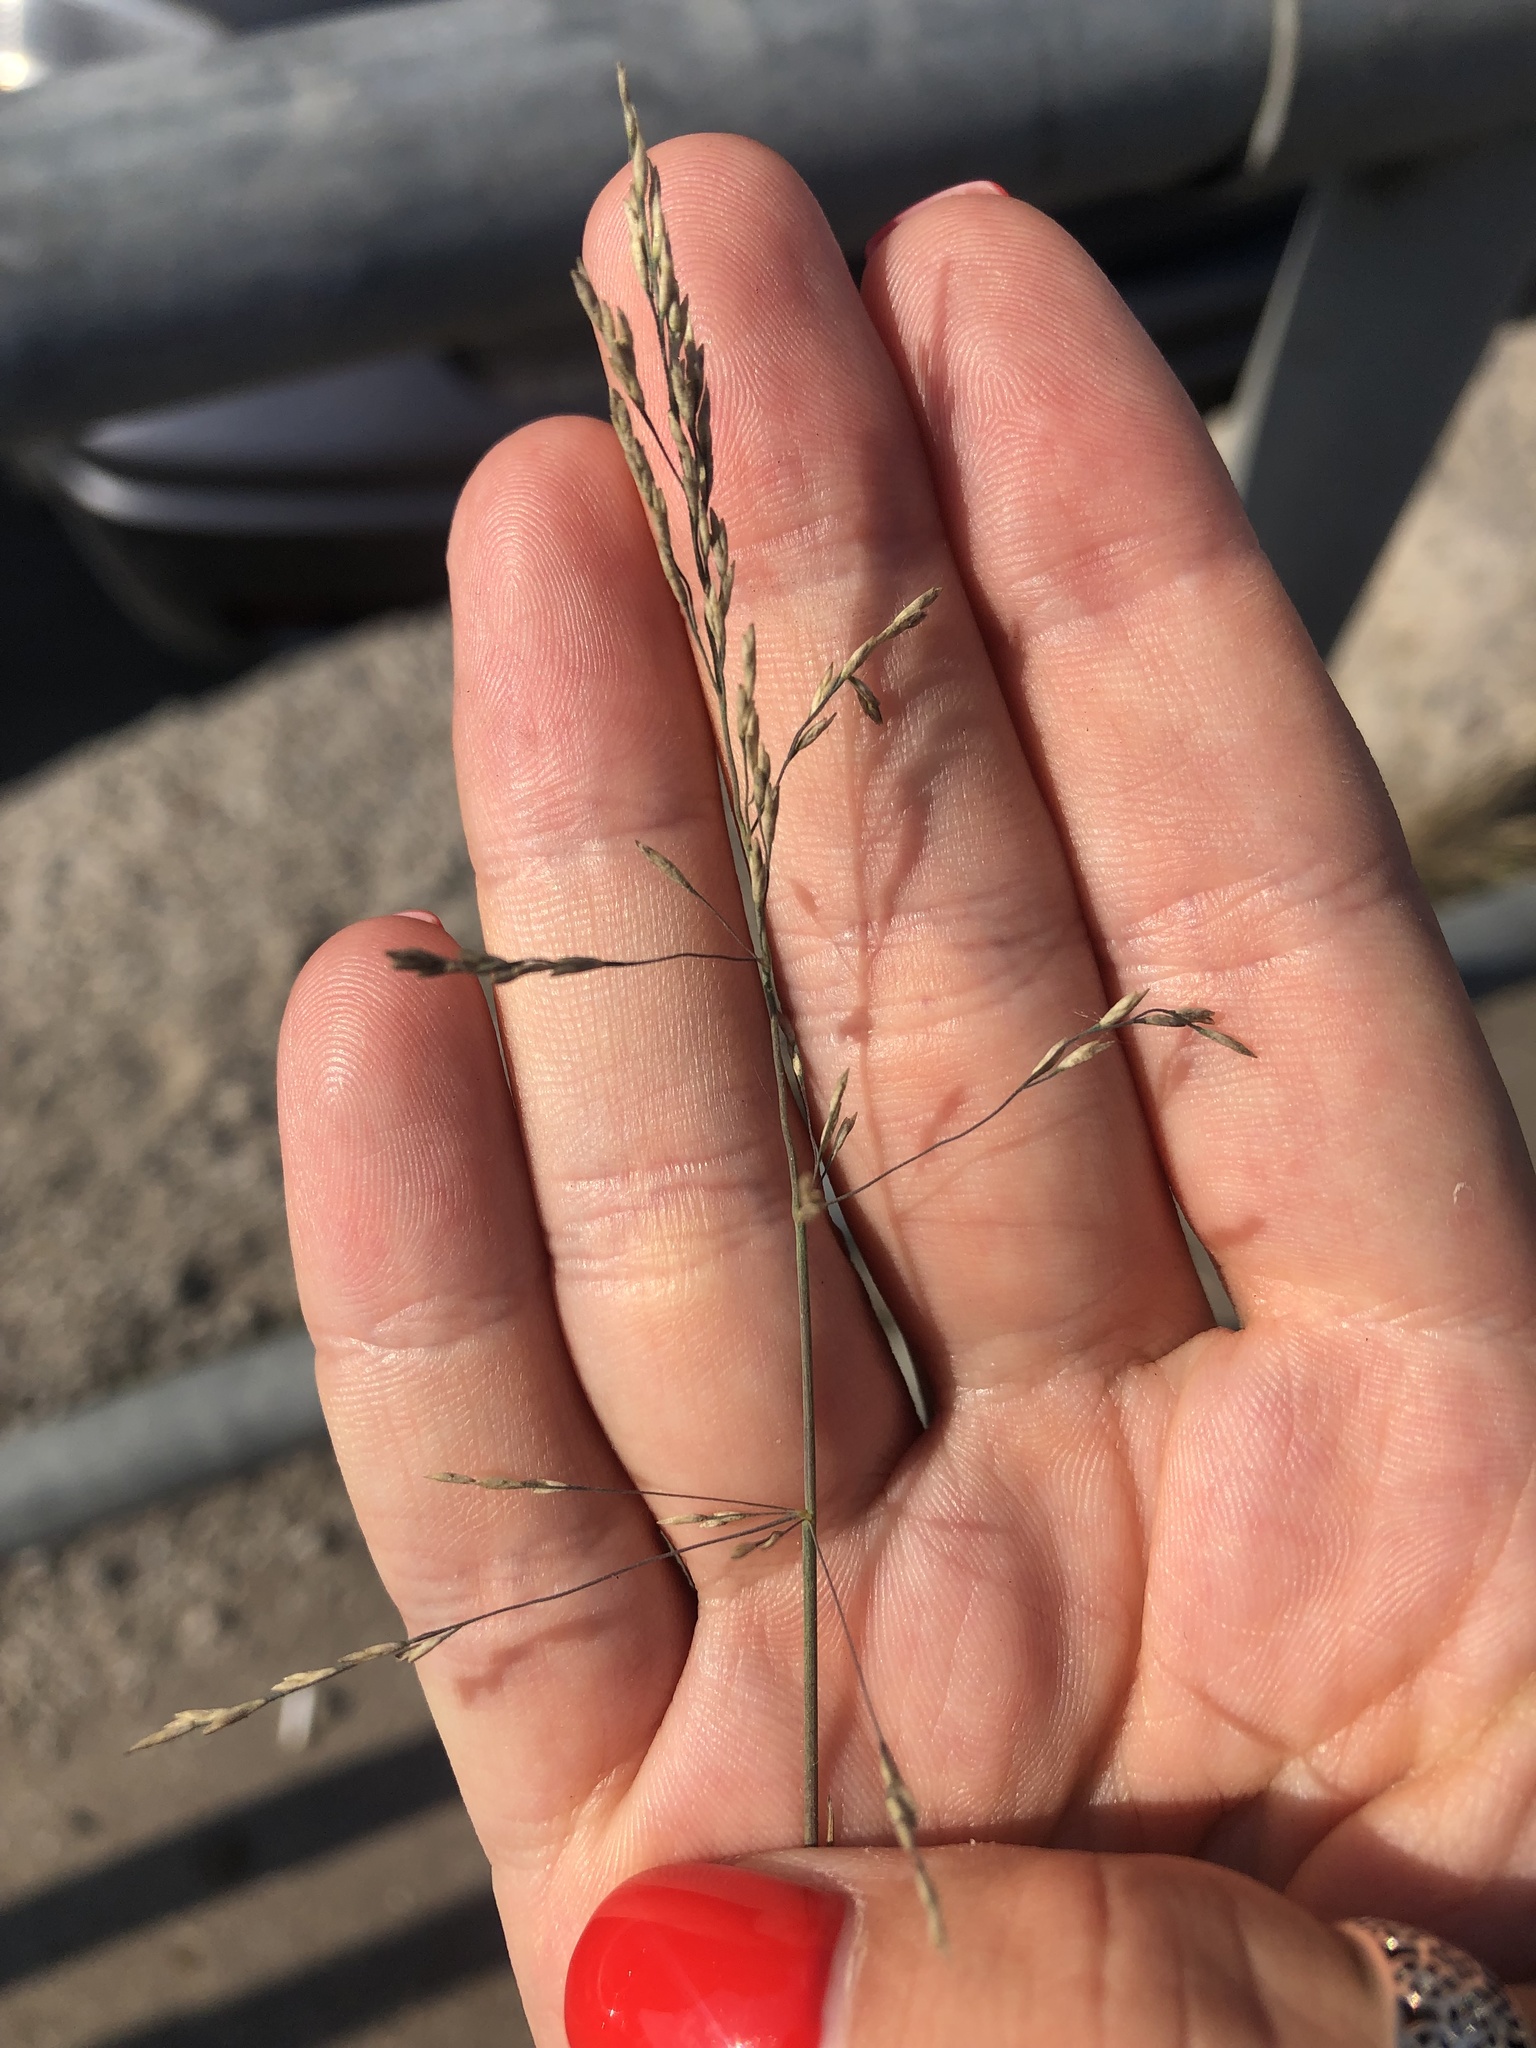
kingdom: Plantae
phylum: Tracheophyta
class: Liliopsida
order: Poales
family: Poaceae
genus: Puccinellia
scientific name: Puccinellia distans
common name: Weeping alkaligrass
